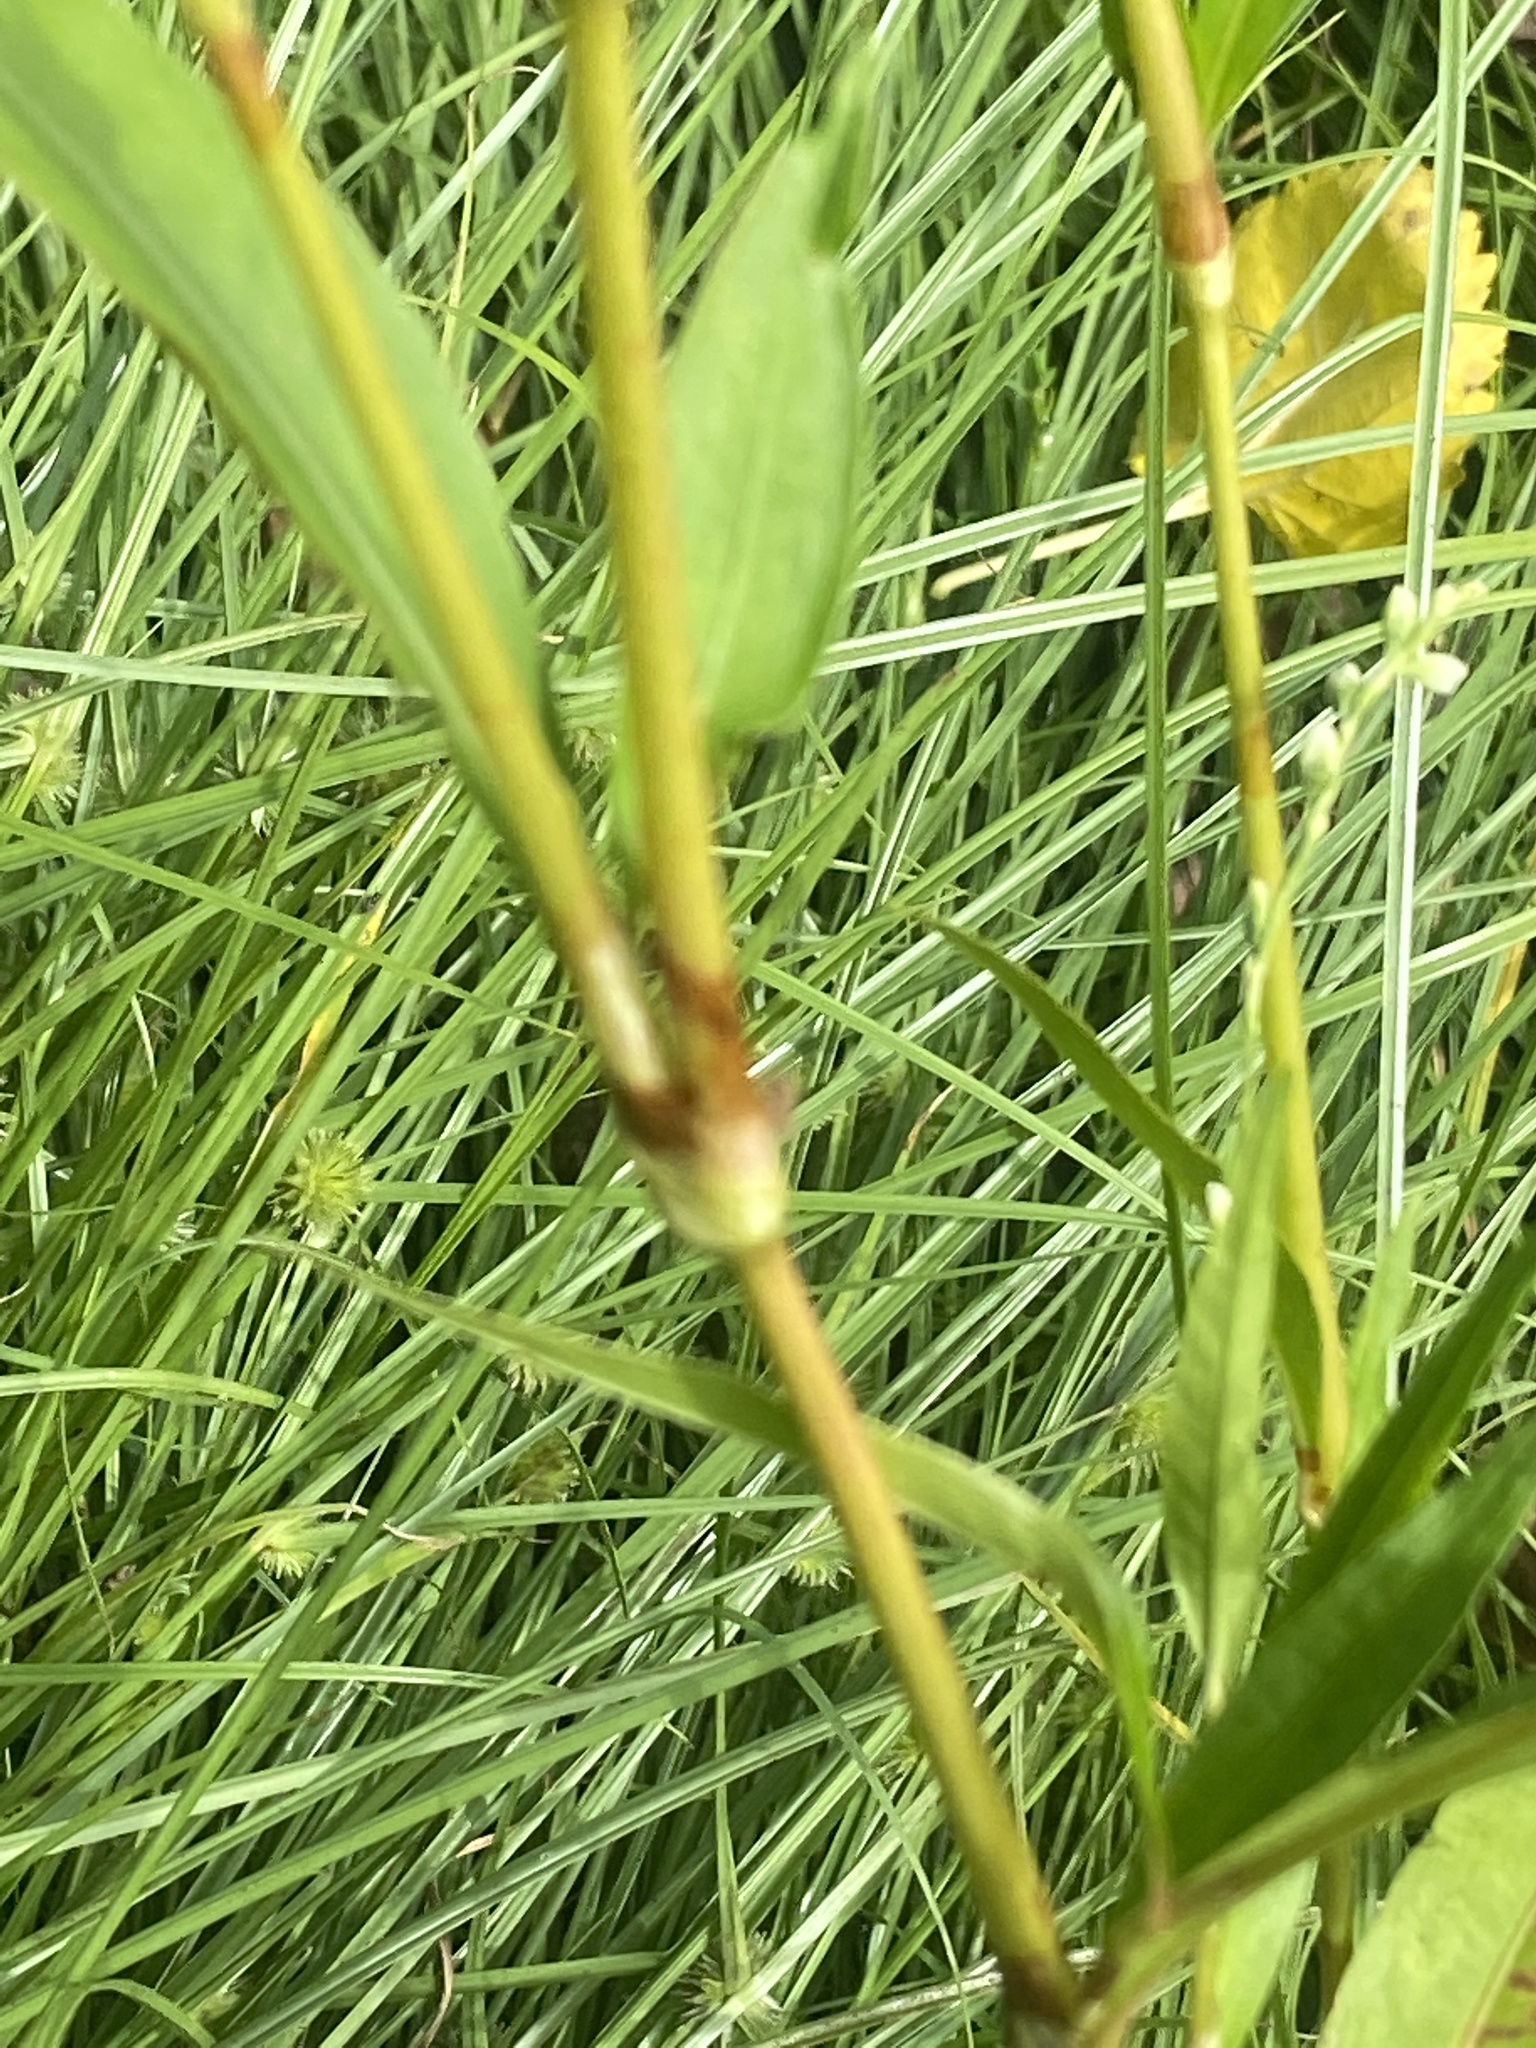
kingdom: Plantae
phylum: Tracheophyta
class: Magnoliopsida
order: Caryophyllales
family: Polygonaceae
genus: Persicaria
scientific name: Persicaria punctata
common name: Dotted smartweed
